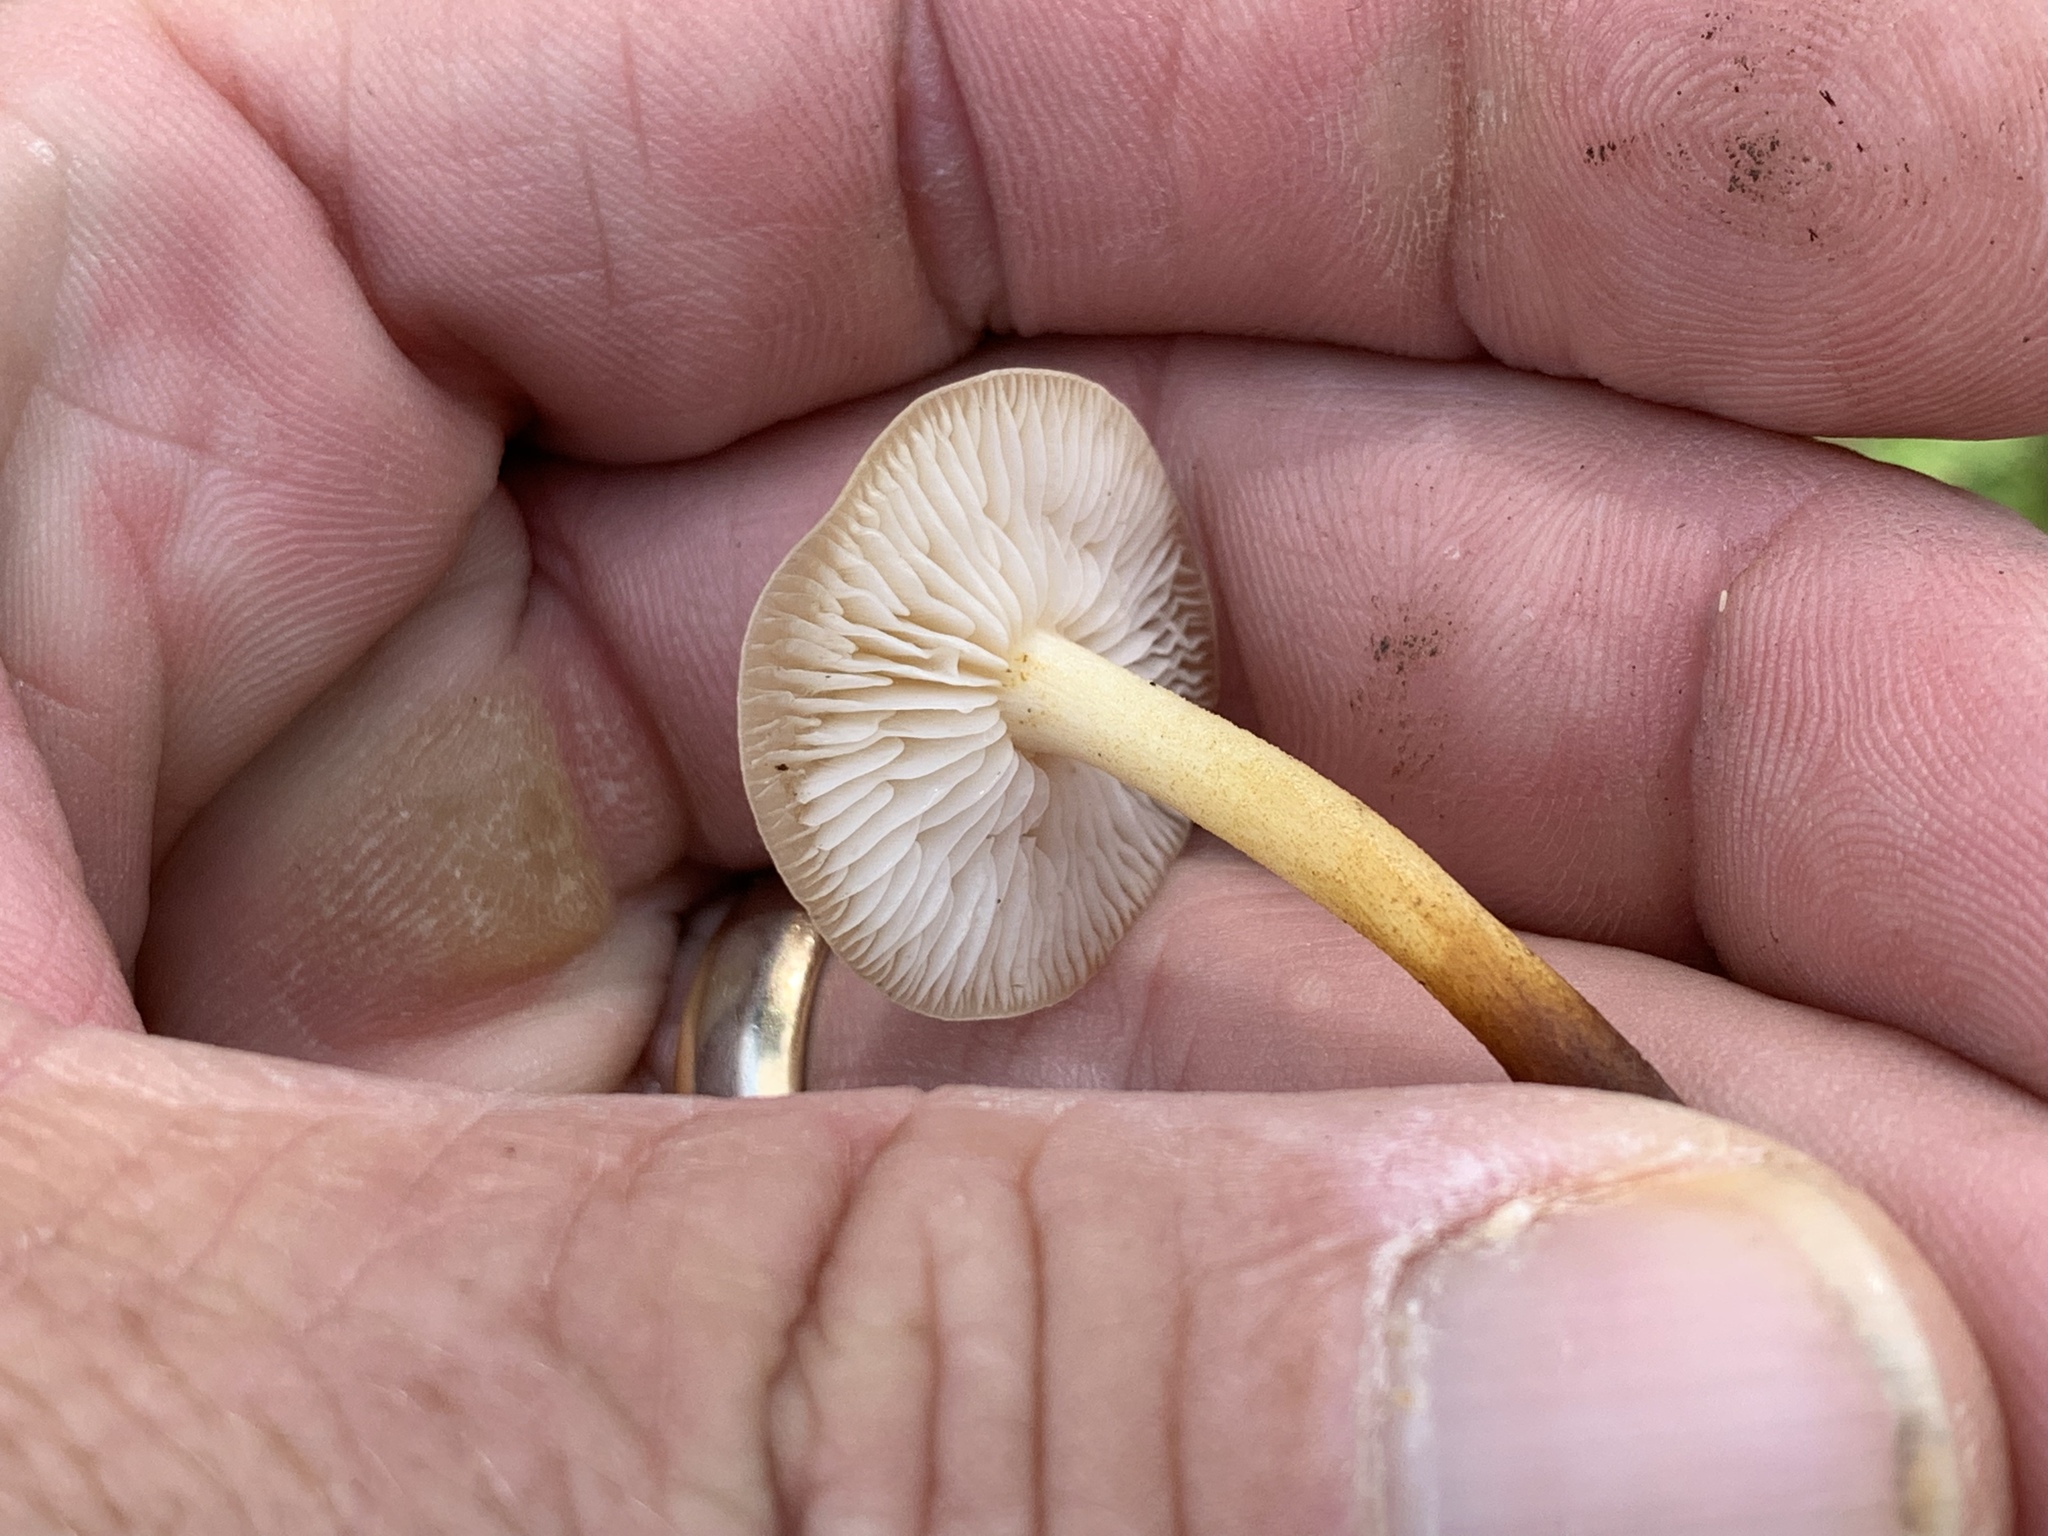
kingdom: Fungi
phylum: Basidiomycota
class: Agaricomycetes
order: Agaricales
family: Physalacriaceae
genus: Flammulina
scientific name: Flammulina velutipes
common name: Velvet shank
